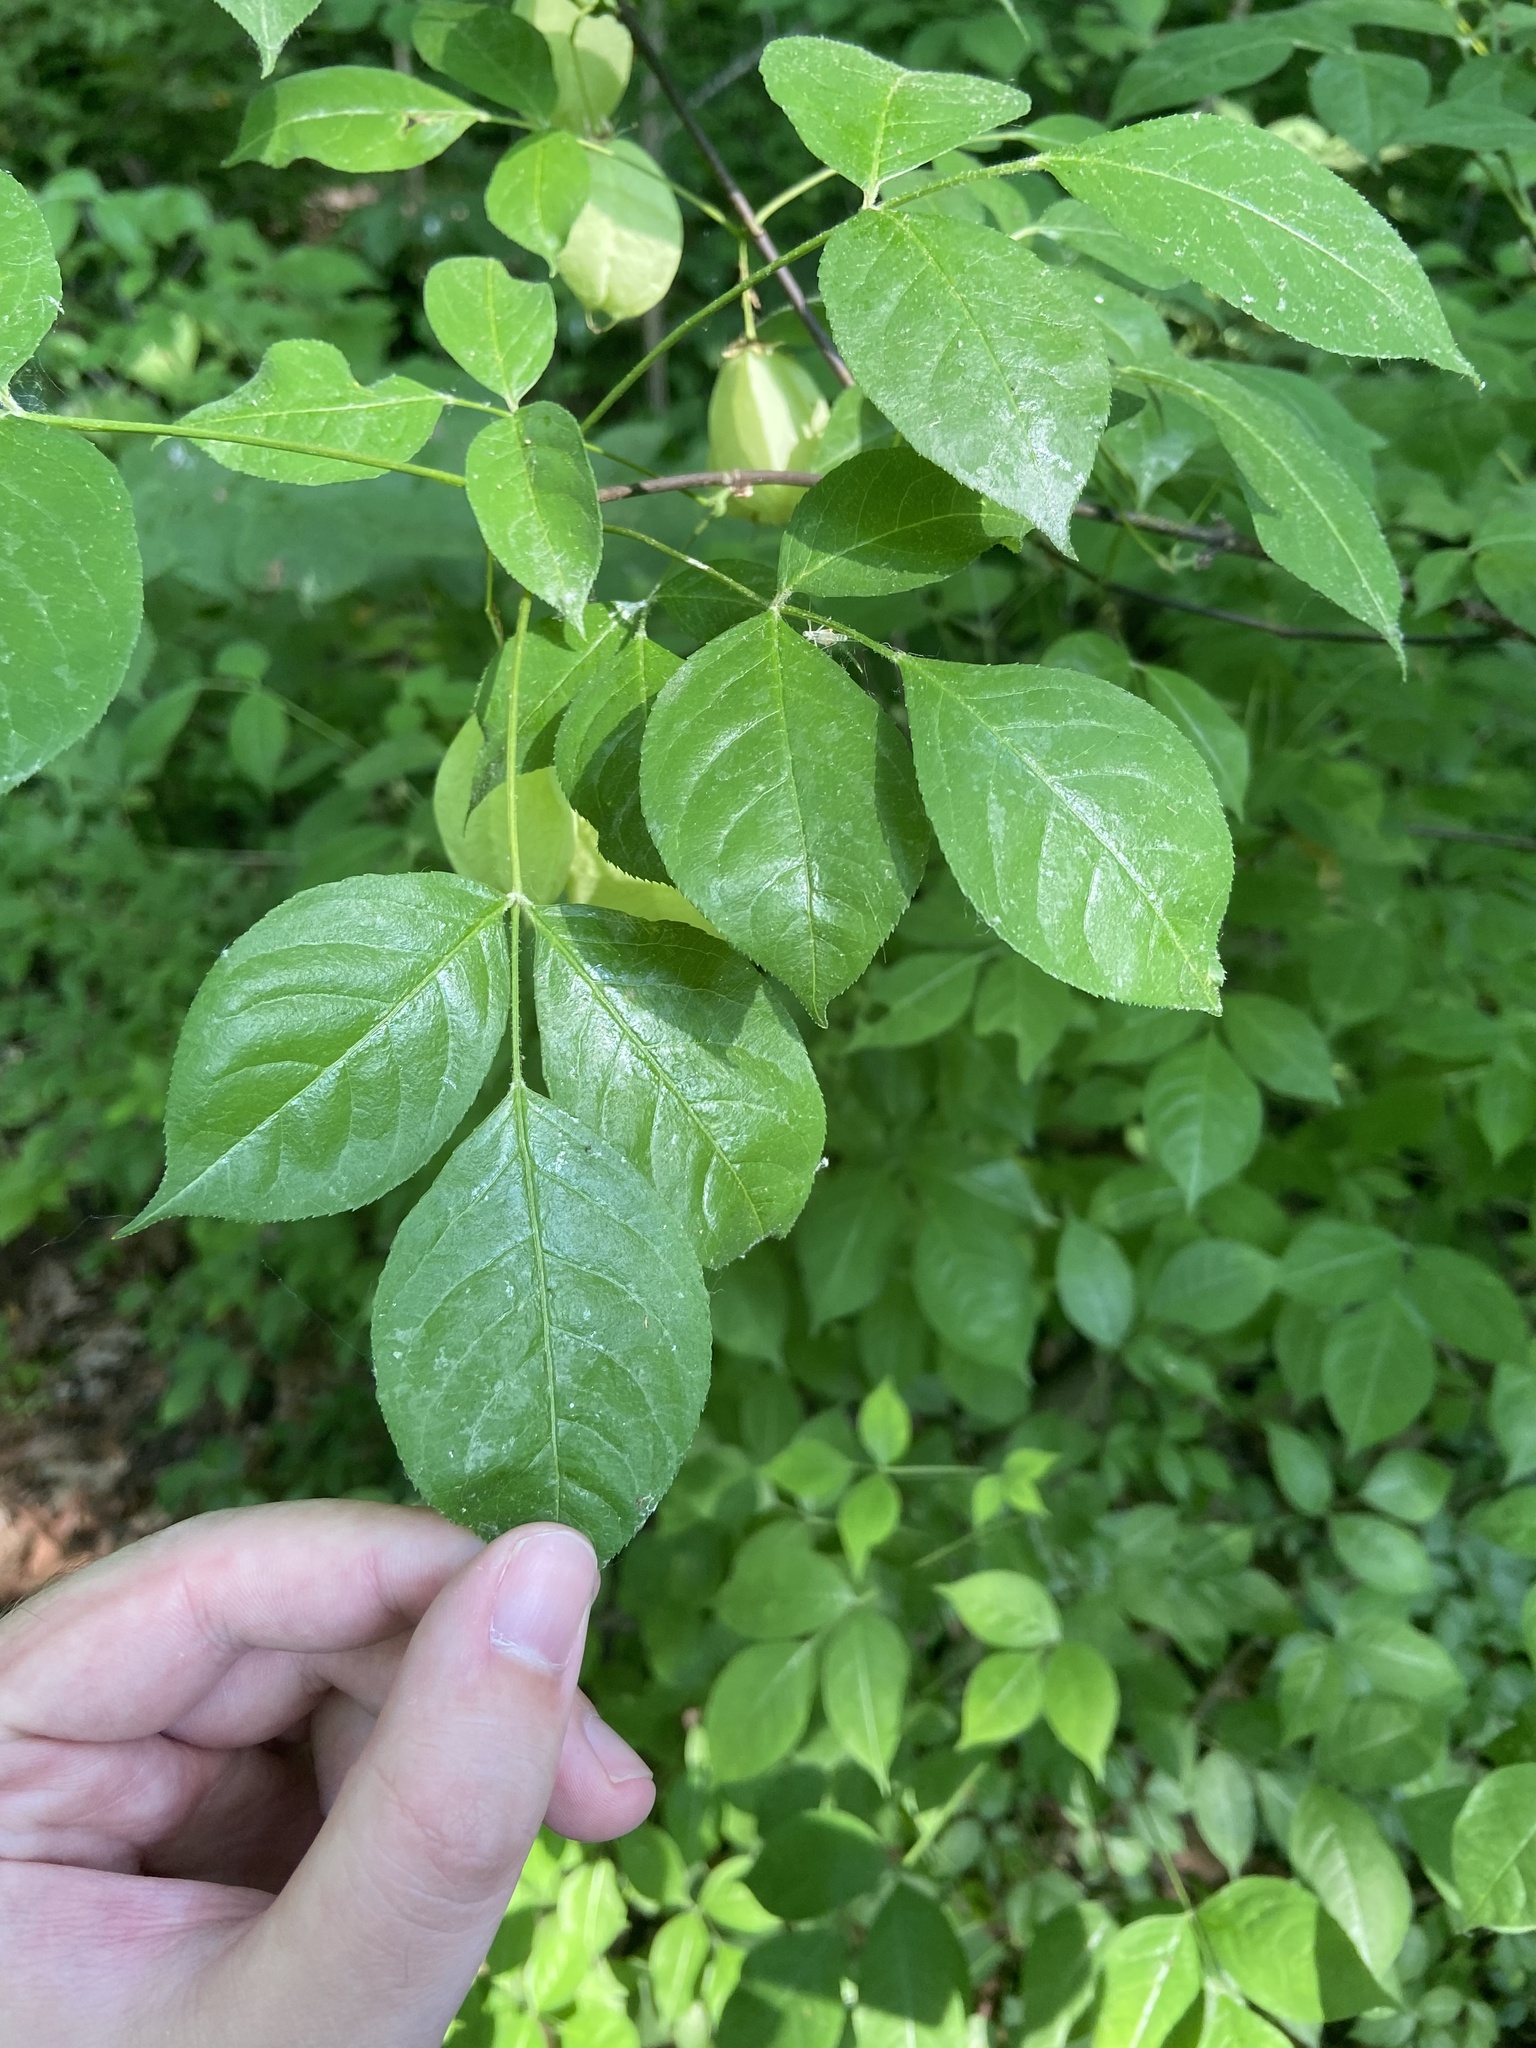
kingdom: Plantae
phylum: Tracheophyta
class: Magnoliopsida
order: Crossosomatales
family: Staphyleaceae
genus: Staphylea
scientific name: Staphylea trifolia
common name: American bladdernut
